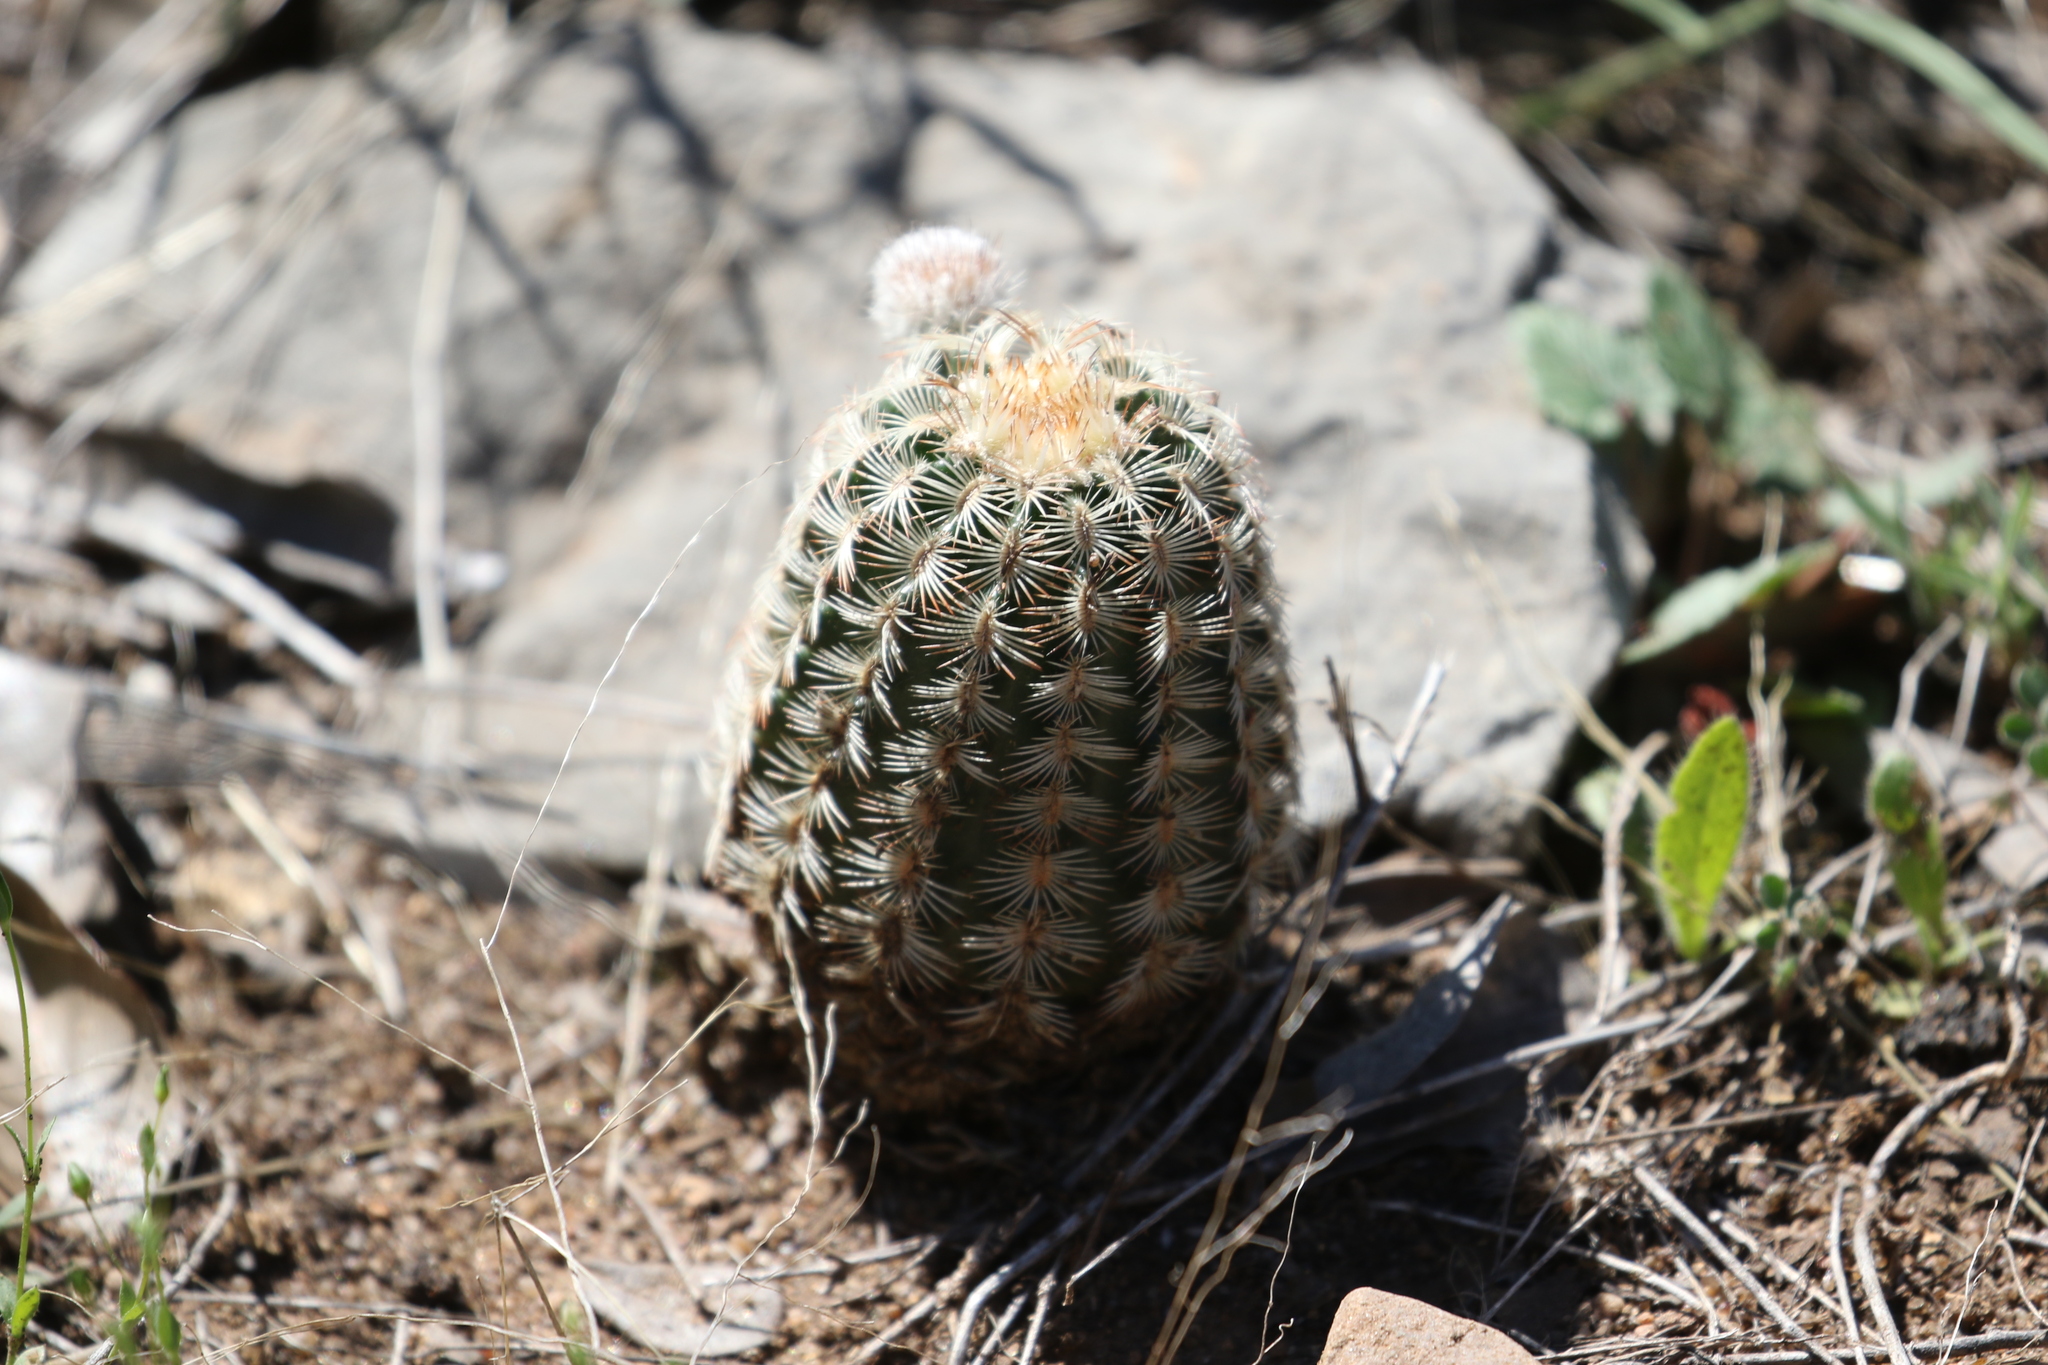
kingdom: Plantae
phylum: Tracheophyta
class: Magnoliopsida
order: Caryophyllales
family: Cactaceae
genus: Echinocereus
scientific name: Echinocereus reichenbachii
